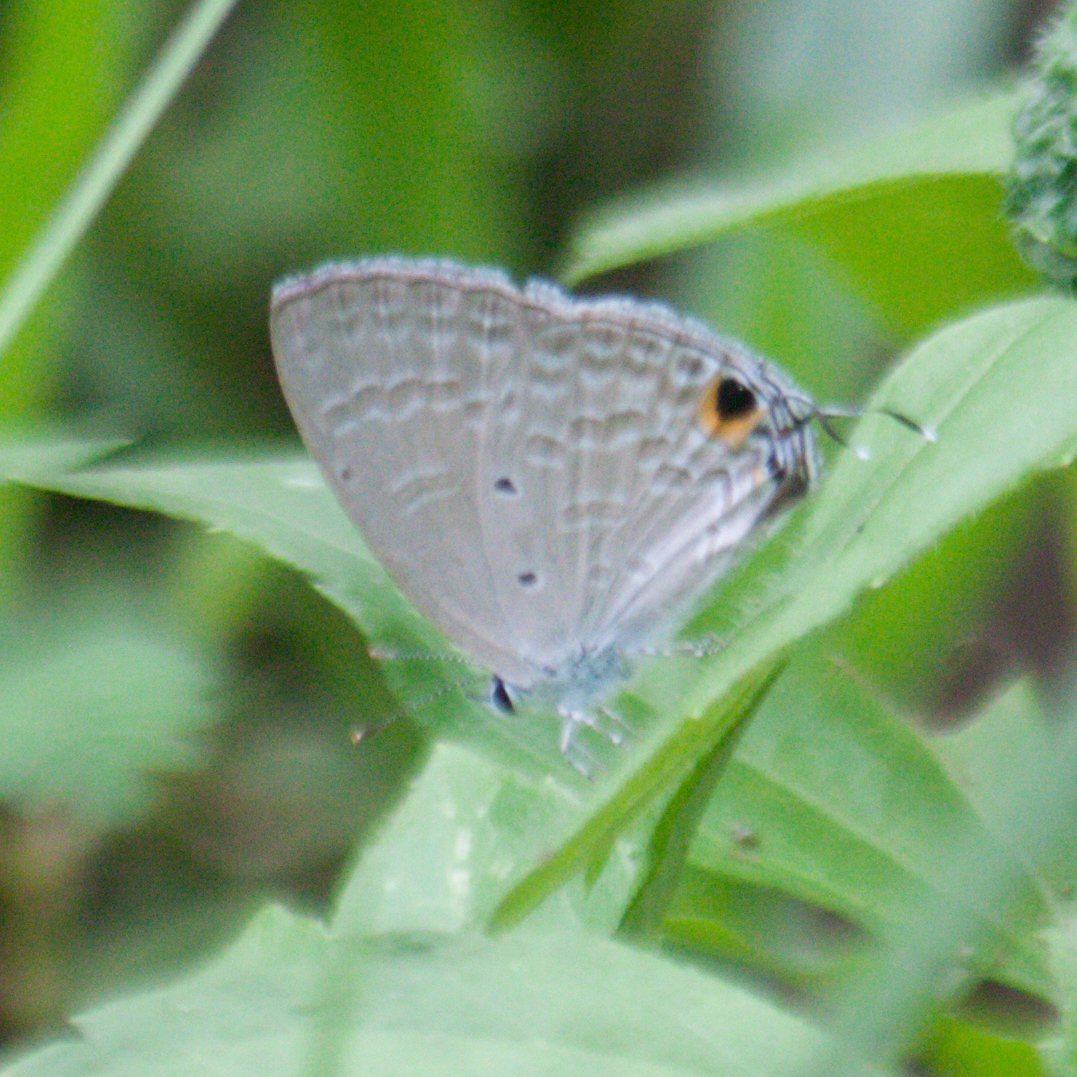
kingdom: Animalia
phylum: Arthropoda
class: Insecta
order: Lepidoptera
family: Lycaenidae
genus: Catochrysops
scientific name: Catochrysops strabo
